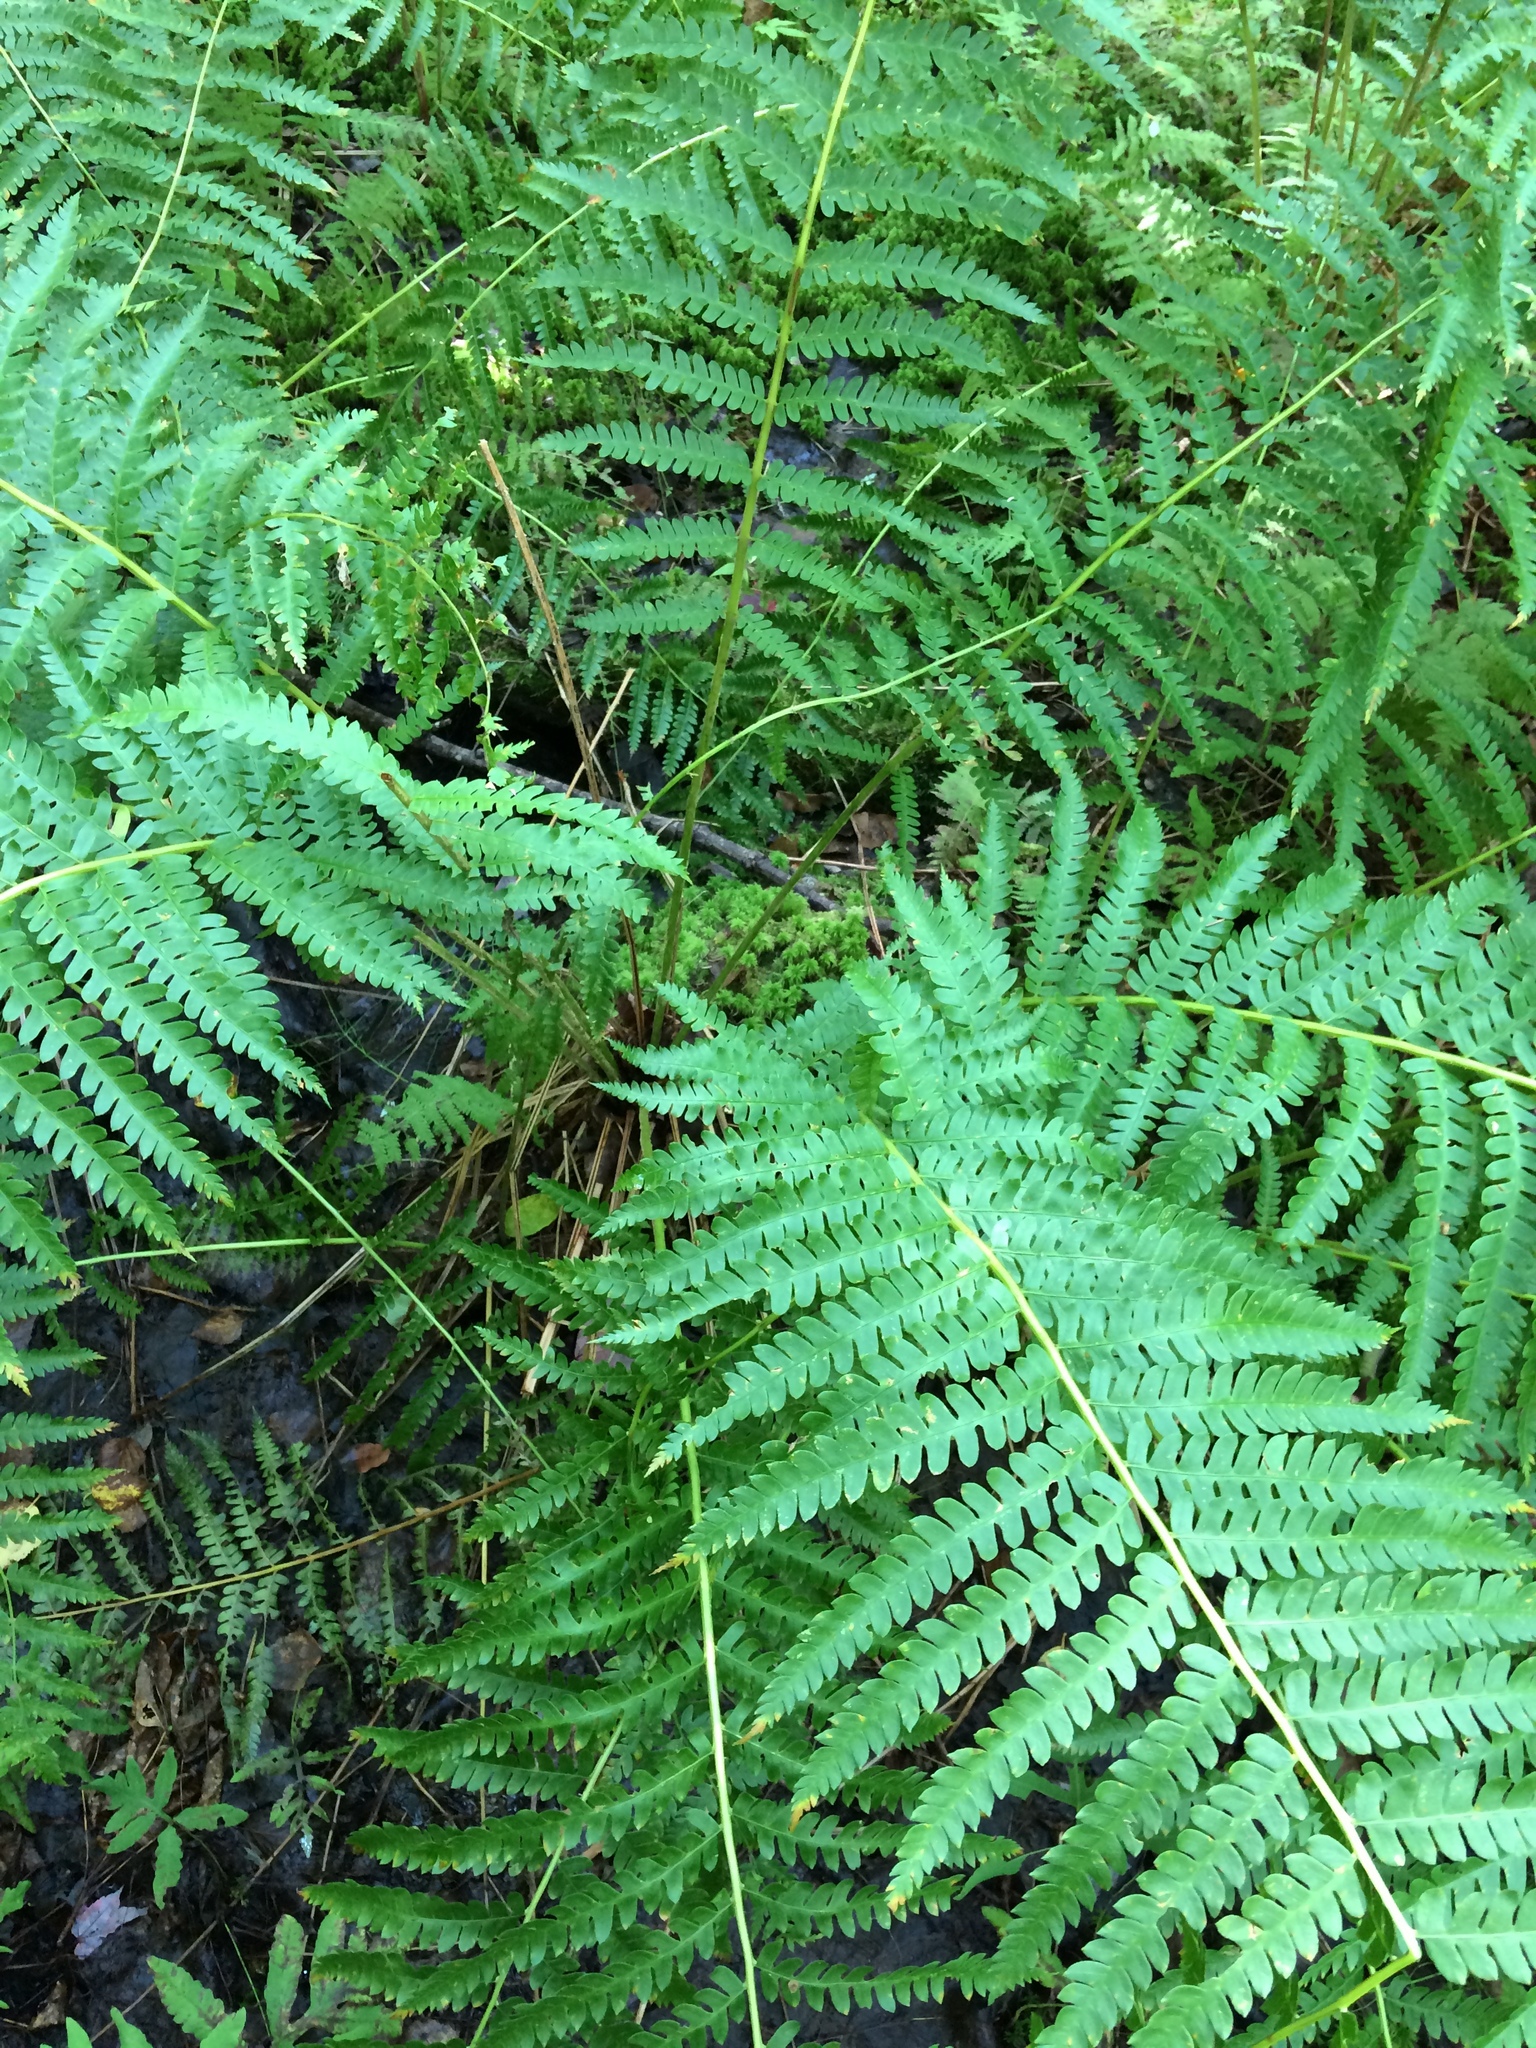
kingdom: Plantae
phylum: Tracheophyta
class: Polypodiopsida
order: Osmundales
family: Osmundaceae
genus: Osmundastrum
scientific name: Osmundastrum cinnamomeum
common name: Cinnamon fern
